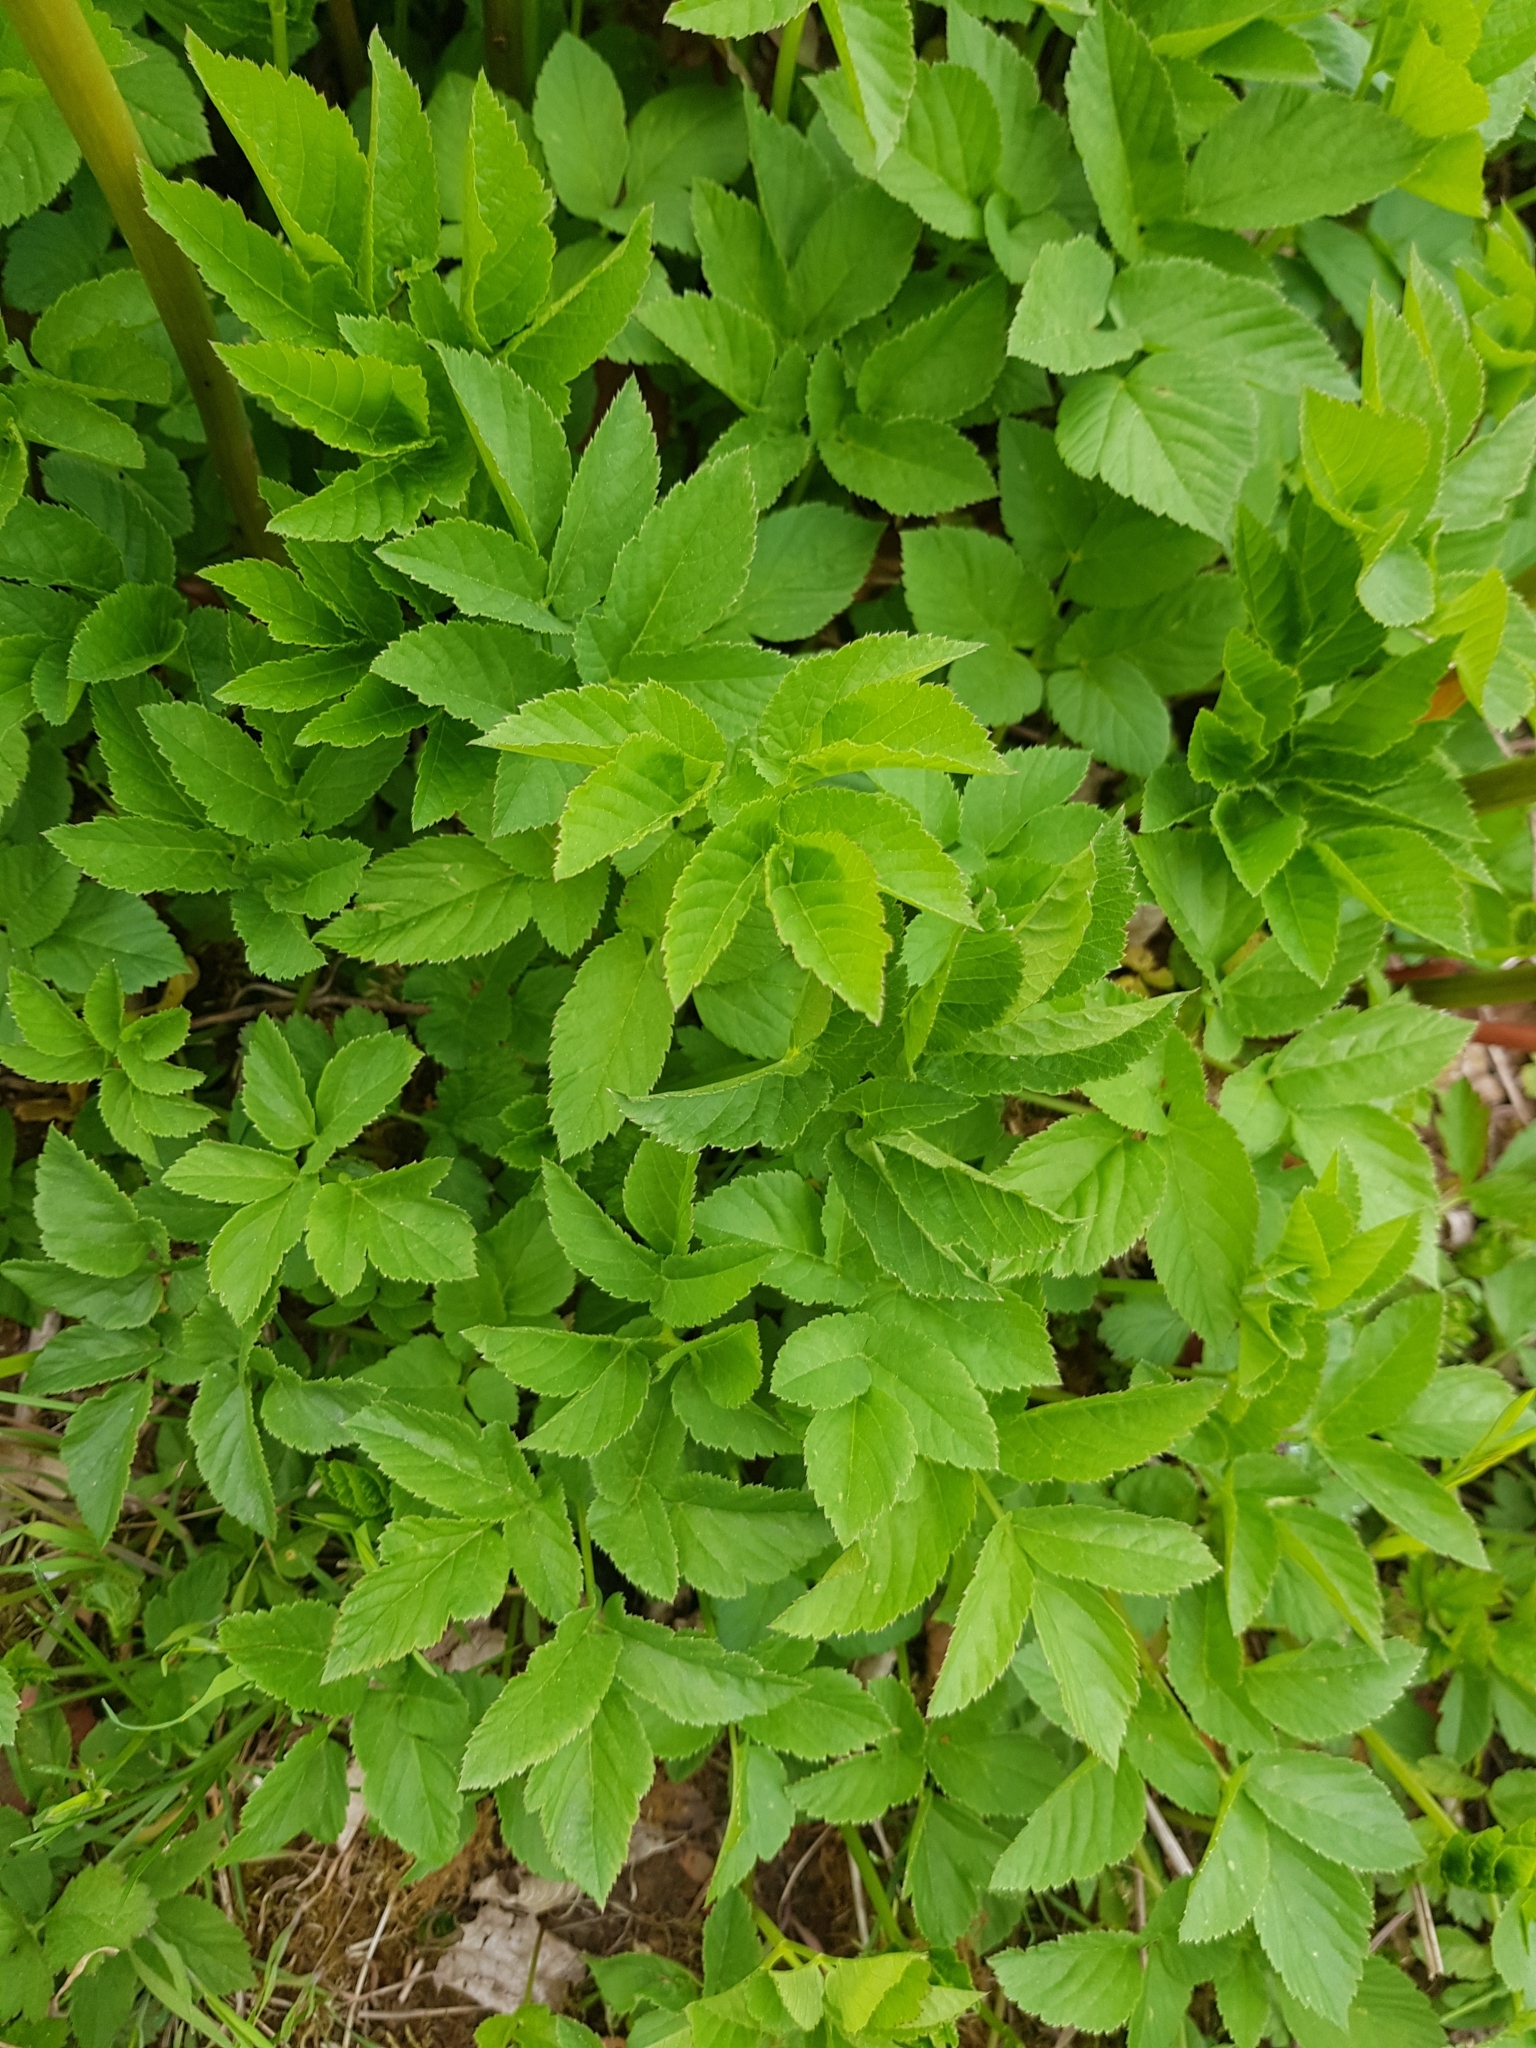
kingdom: Plantae
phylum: Tracheophyta
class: Magnoliopsida
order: Apiales
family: Apiaceae
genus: Aegopodium
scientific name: Aegopodium podagraria
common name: Ground-elder
